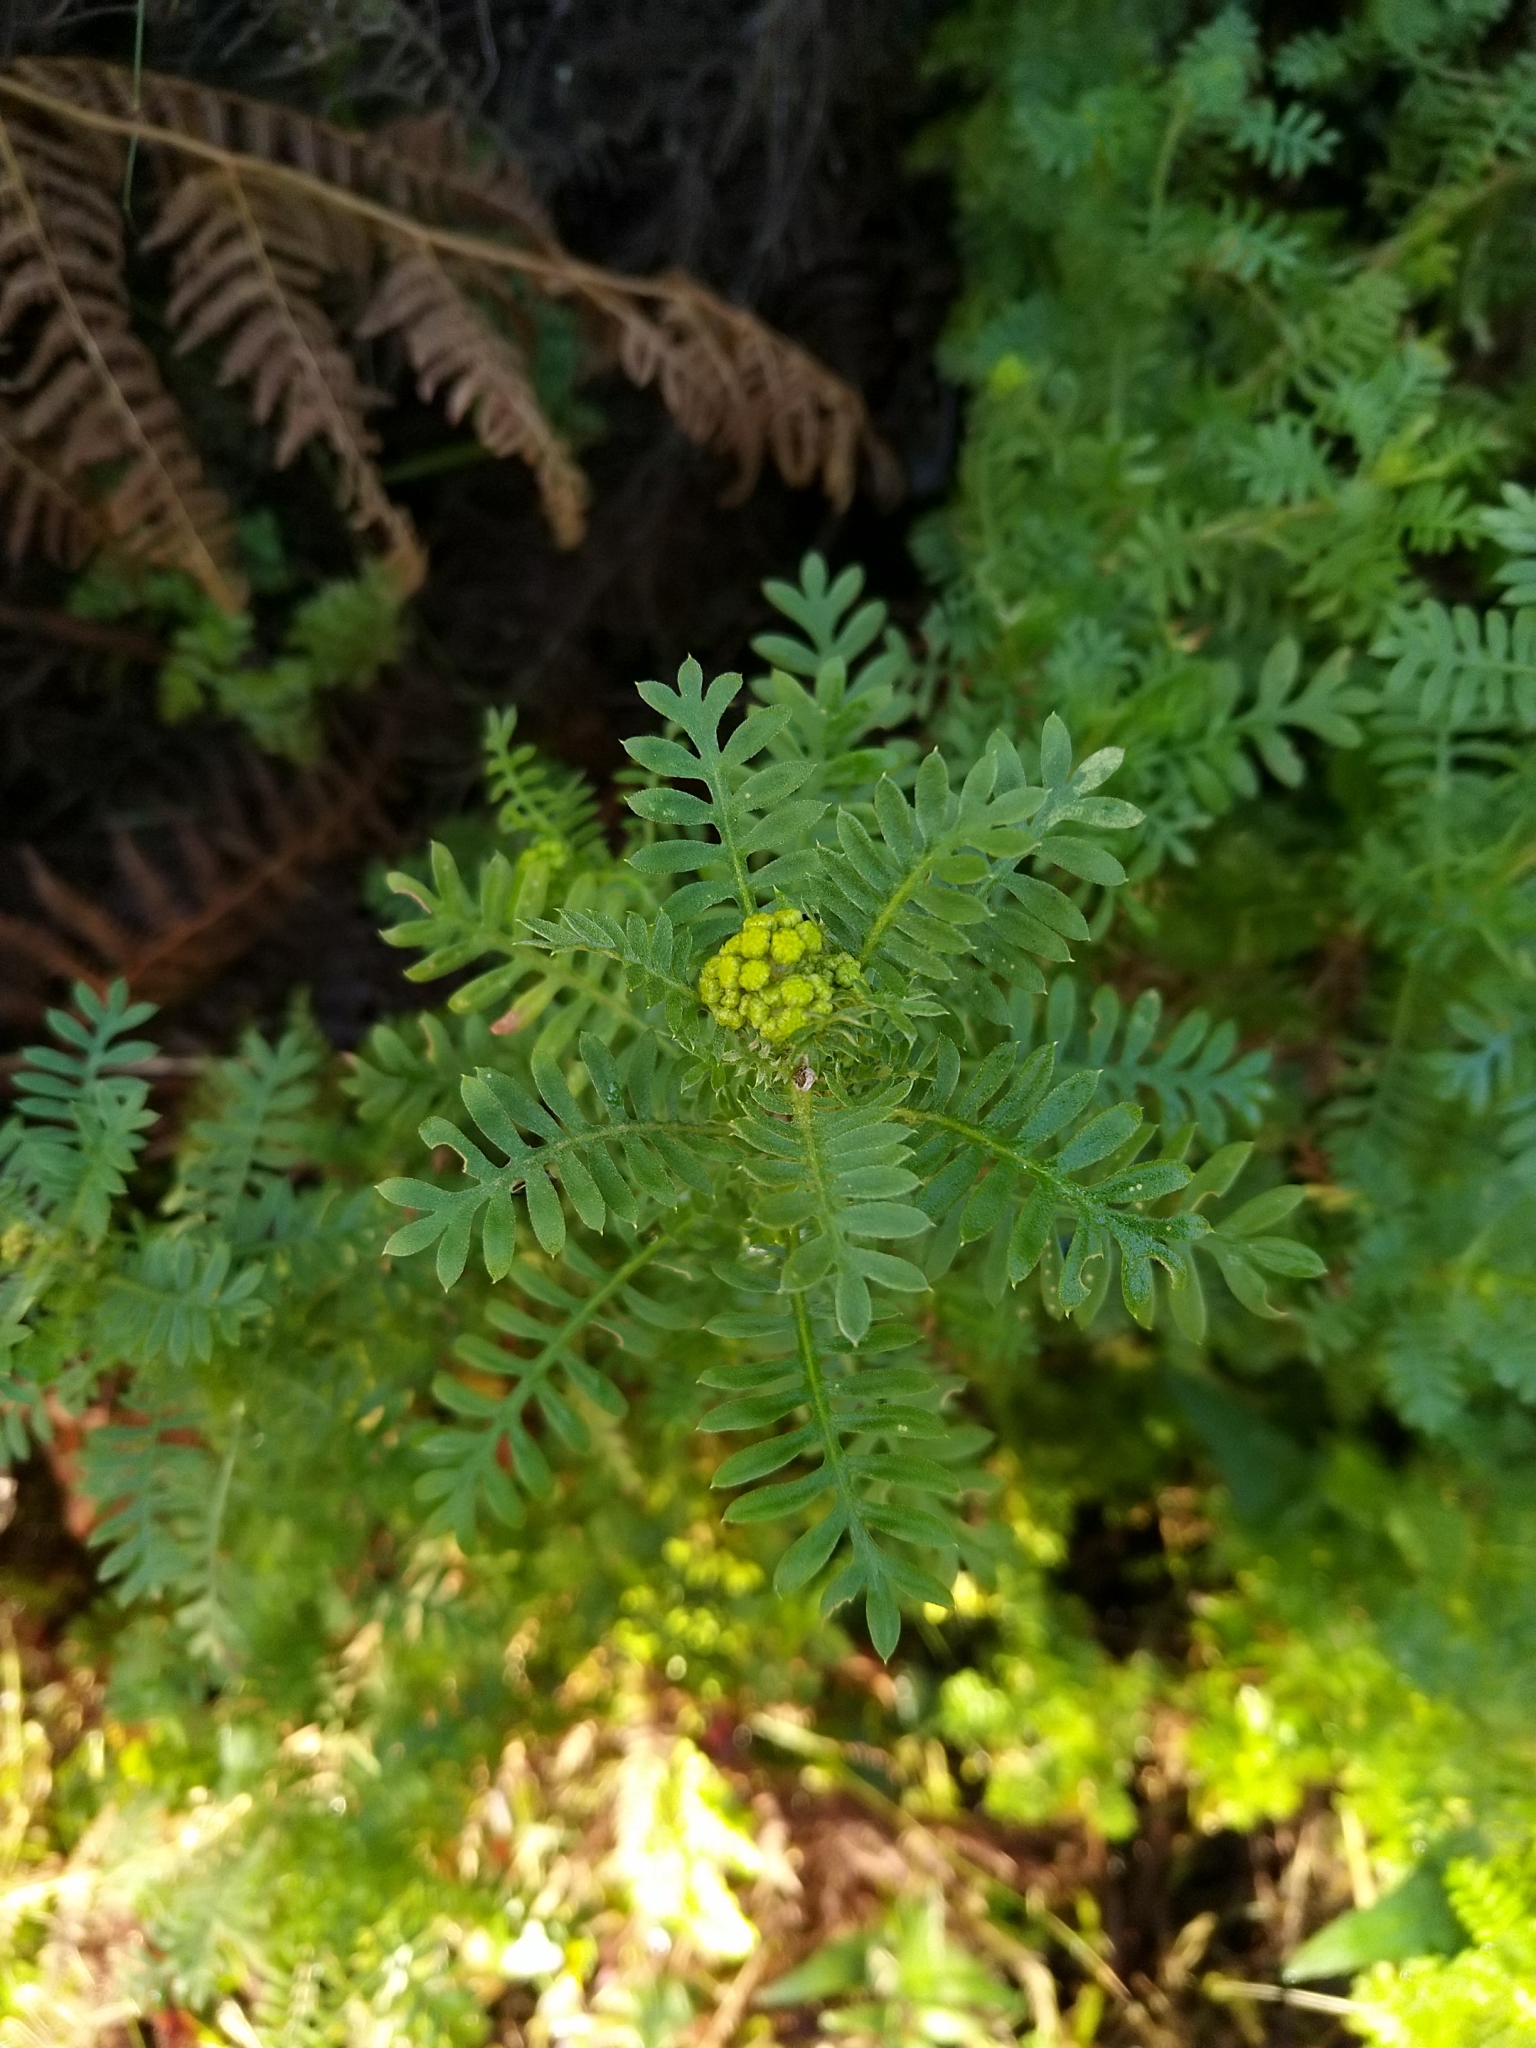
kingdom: Plantae
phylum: Tracheophyta
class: Magnoliopsida
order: Asterales
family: Asteraceae
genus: Hippia
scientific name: Hippia frutescens
